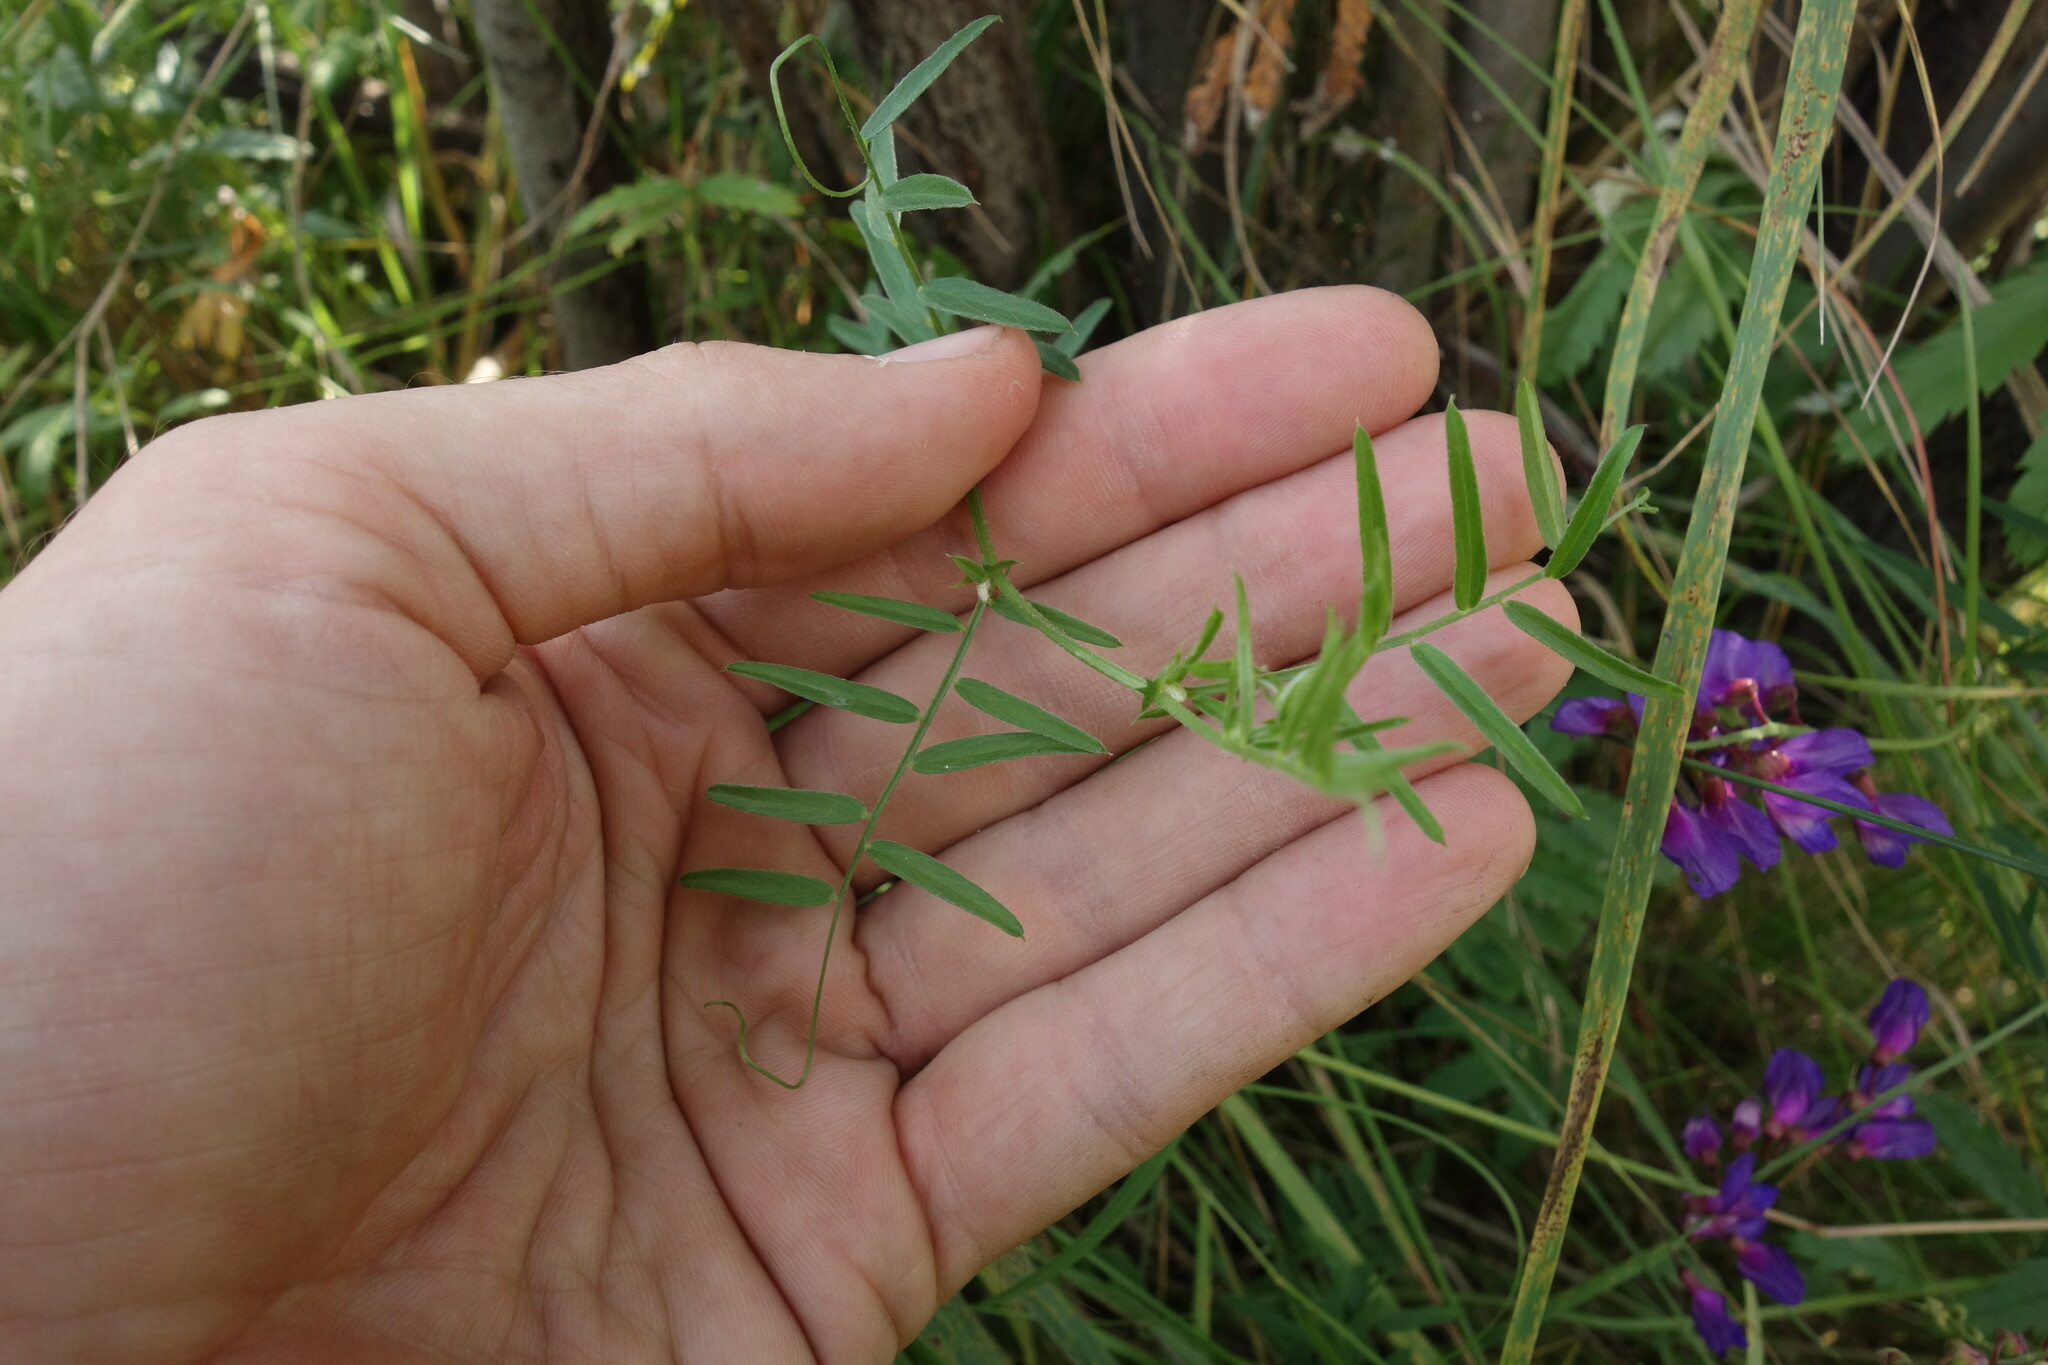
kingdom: Plantae
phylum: Tracheophyta
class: Magnoliopsida
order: Fabales
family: Fabaceae
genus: Vicia
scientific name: Vicia amoena
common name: Cheder ebs
